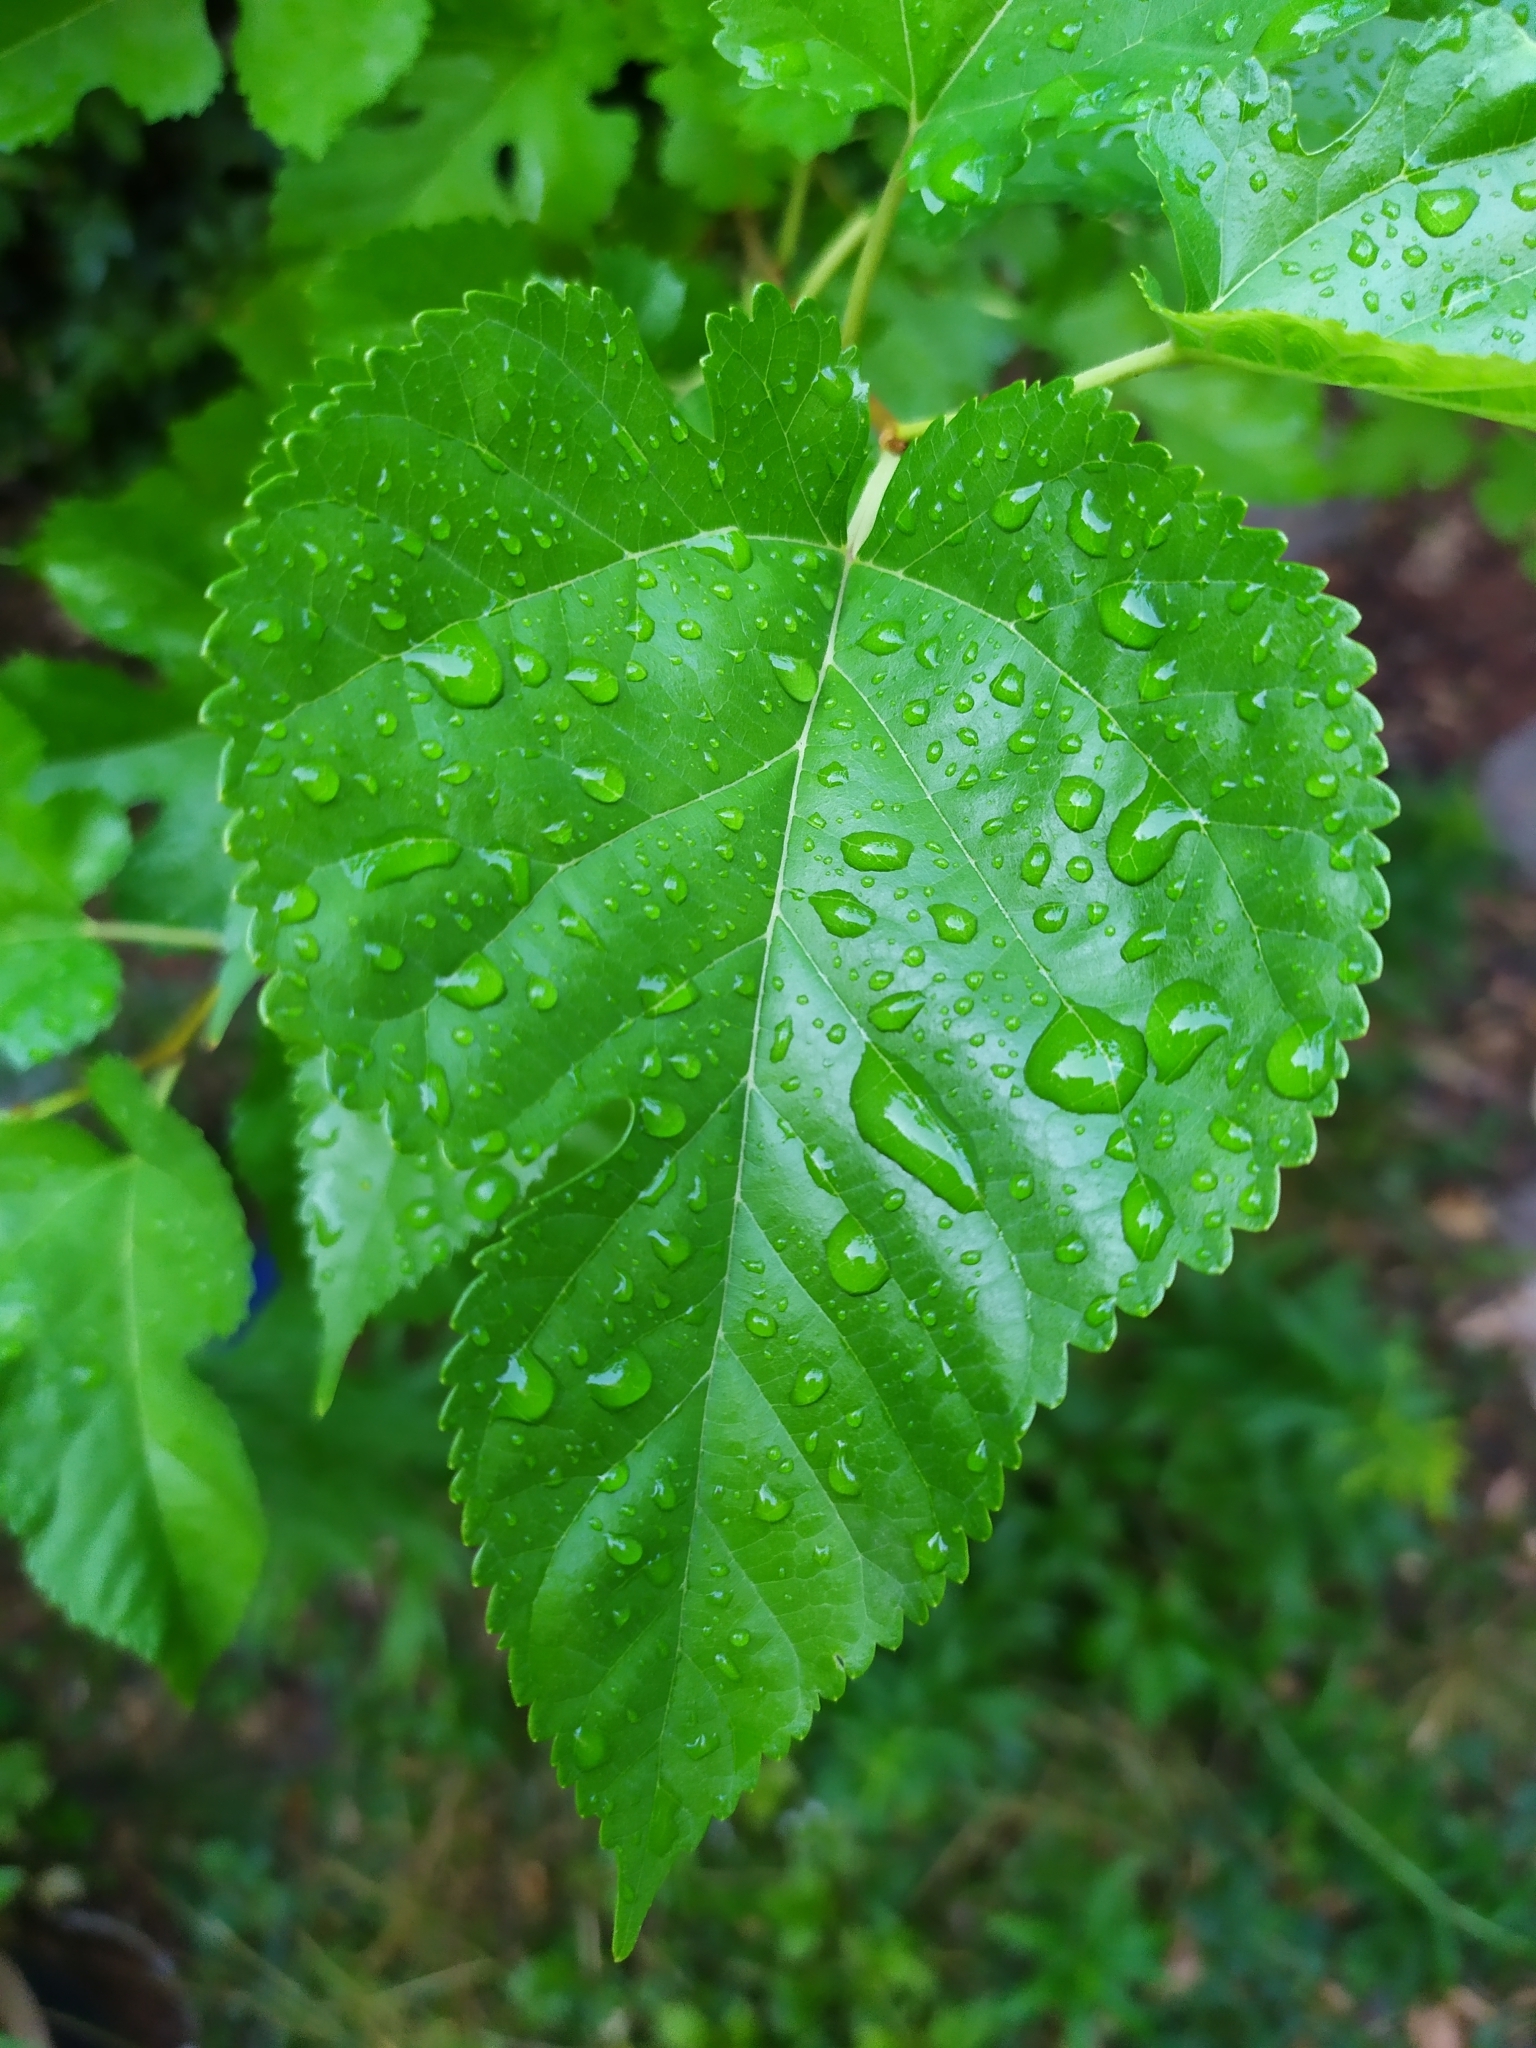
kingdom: Plantae
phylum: Tracheophyta
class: Magnoliopsida
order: Rosales
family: Moraceae
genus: Morus
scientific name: Morus alba
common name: White mulberry
